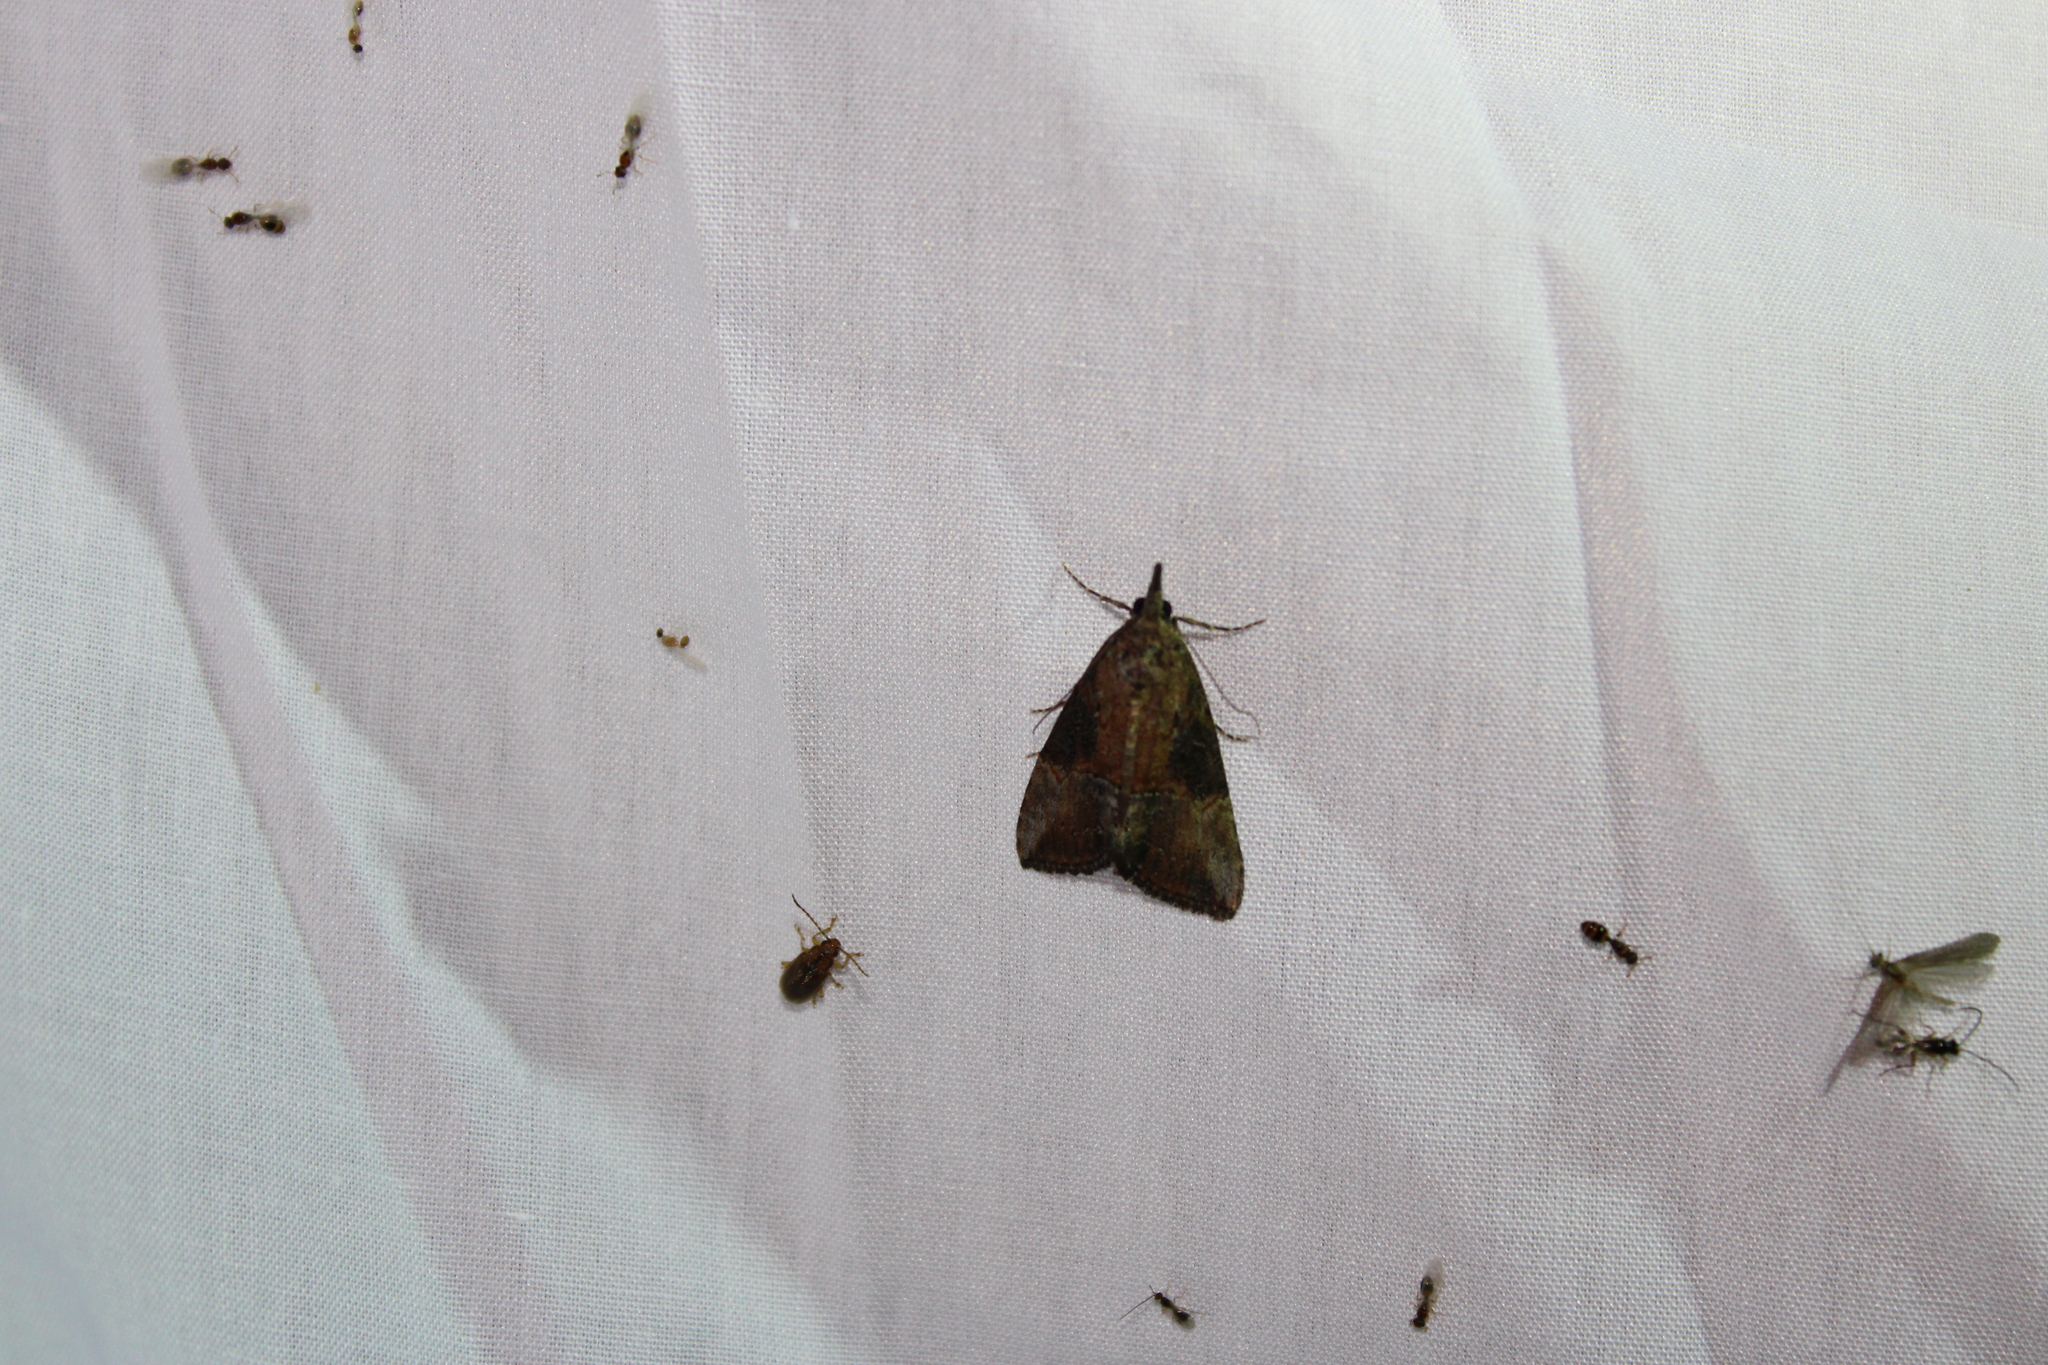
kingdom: Animalia
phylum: Arthropoda
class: Insecta
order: Lepidoptera
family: Erebidae
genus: Hypena
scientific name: Hypena scabra
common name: Green cloverworm
